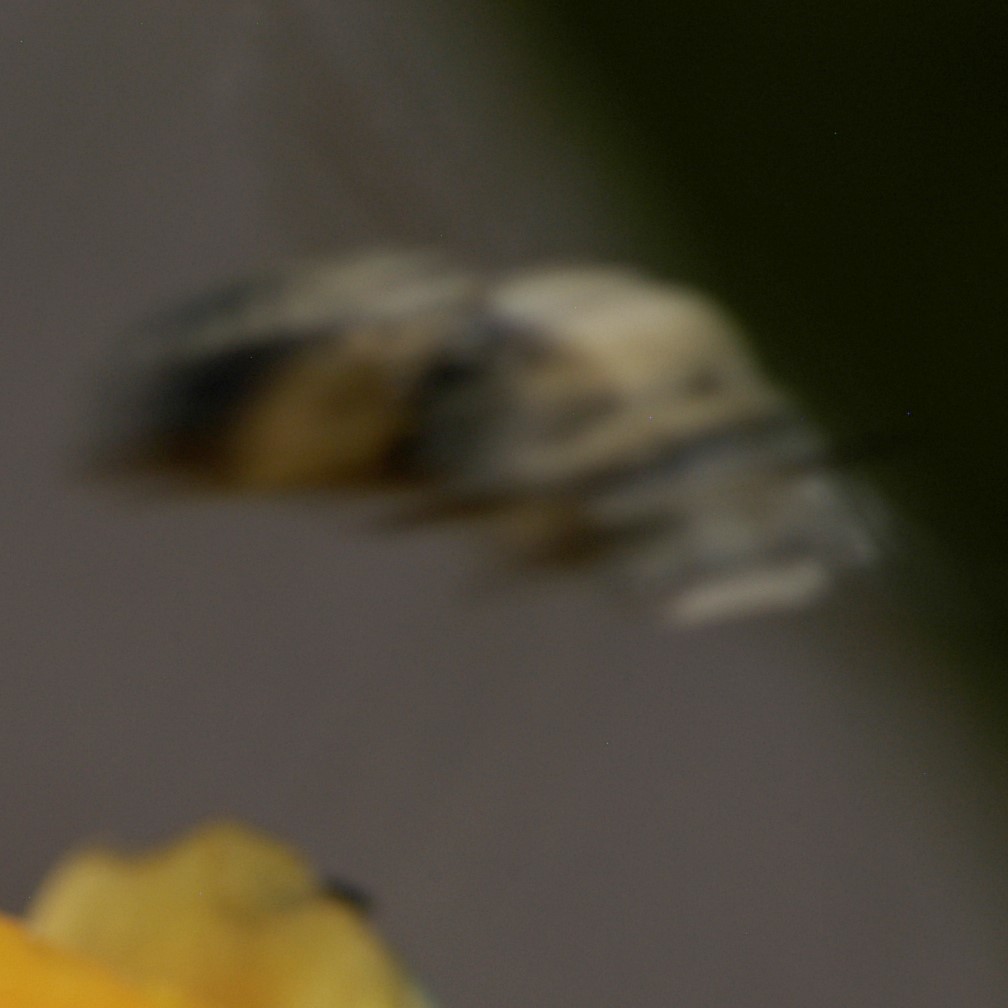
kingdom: Animalia
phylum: Arthropoda
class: Insecta
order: Hymenoptera
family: Apidae
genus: Diadasia
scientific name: Diadasia
